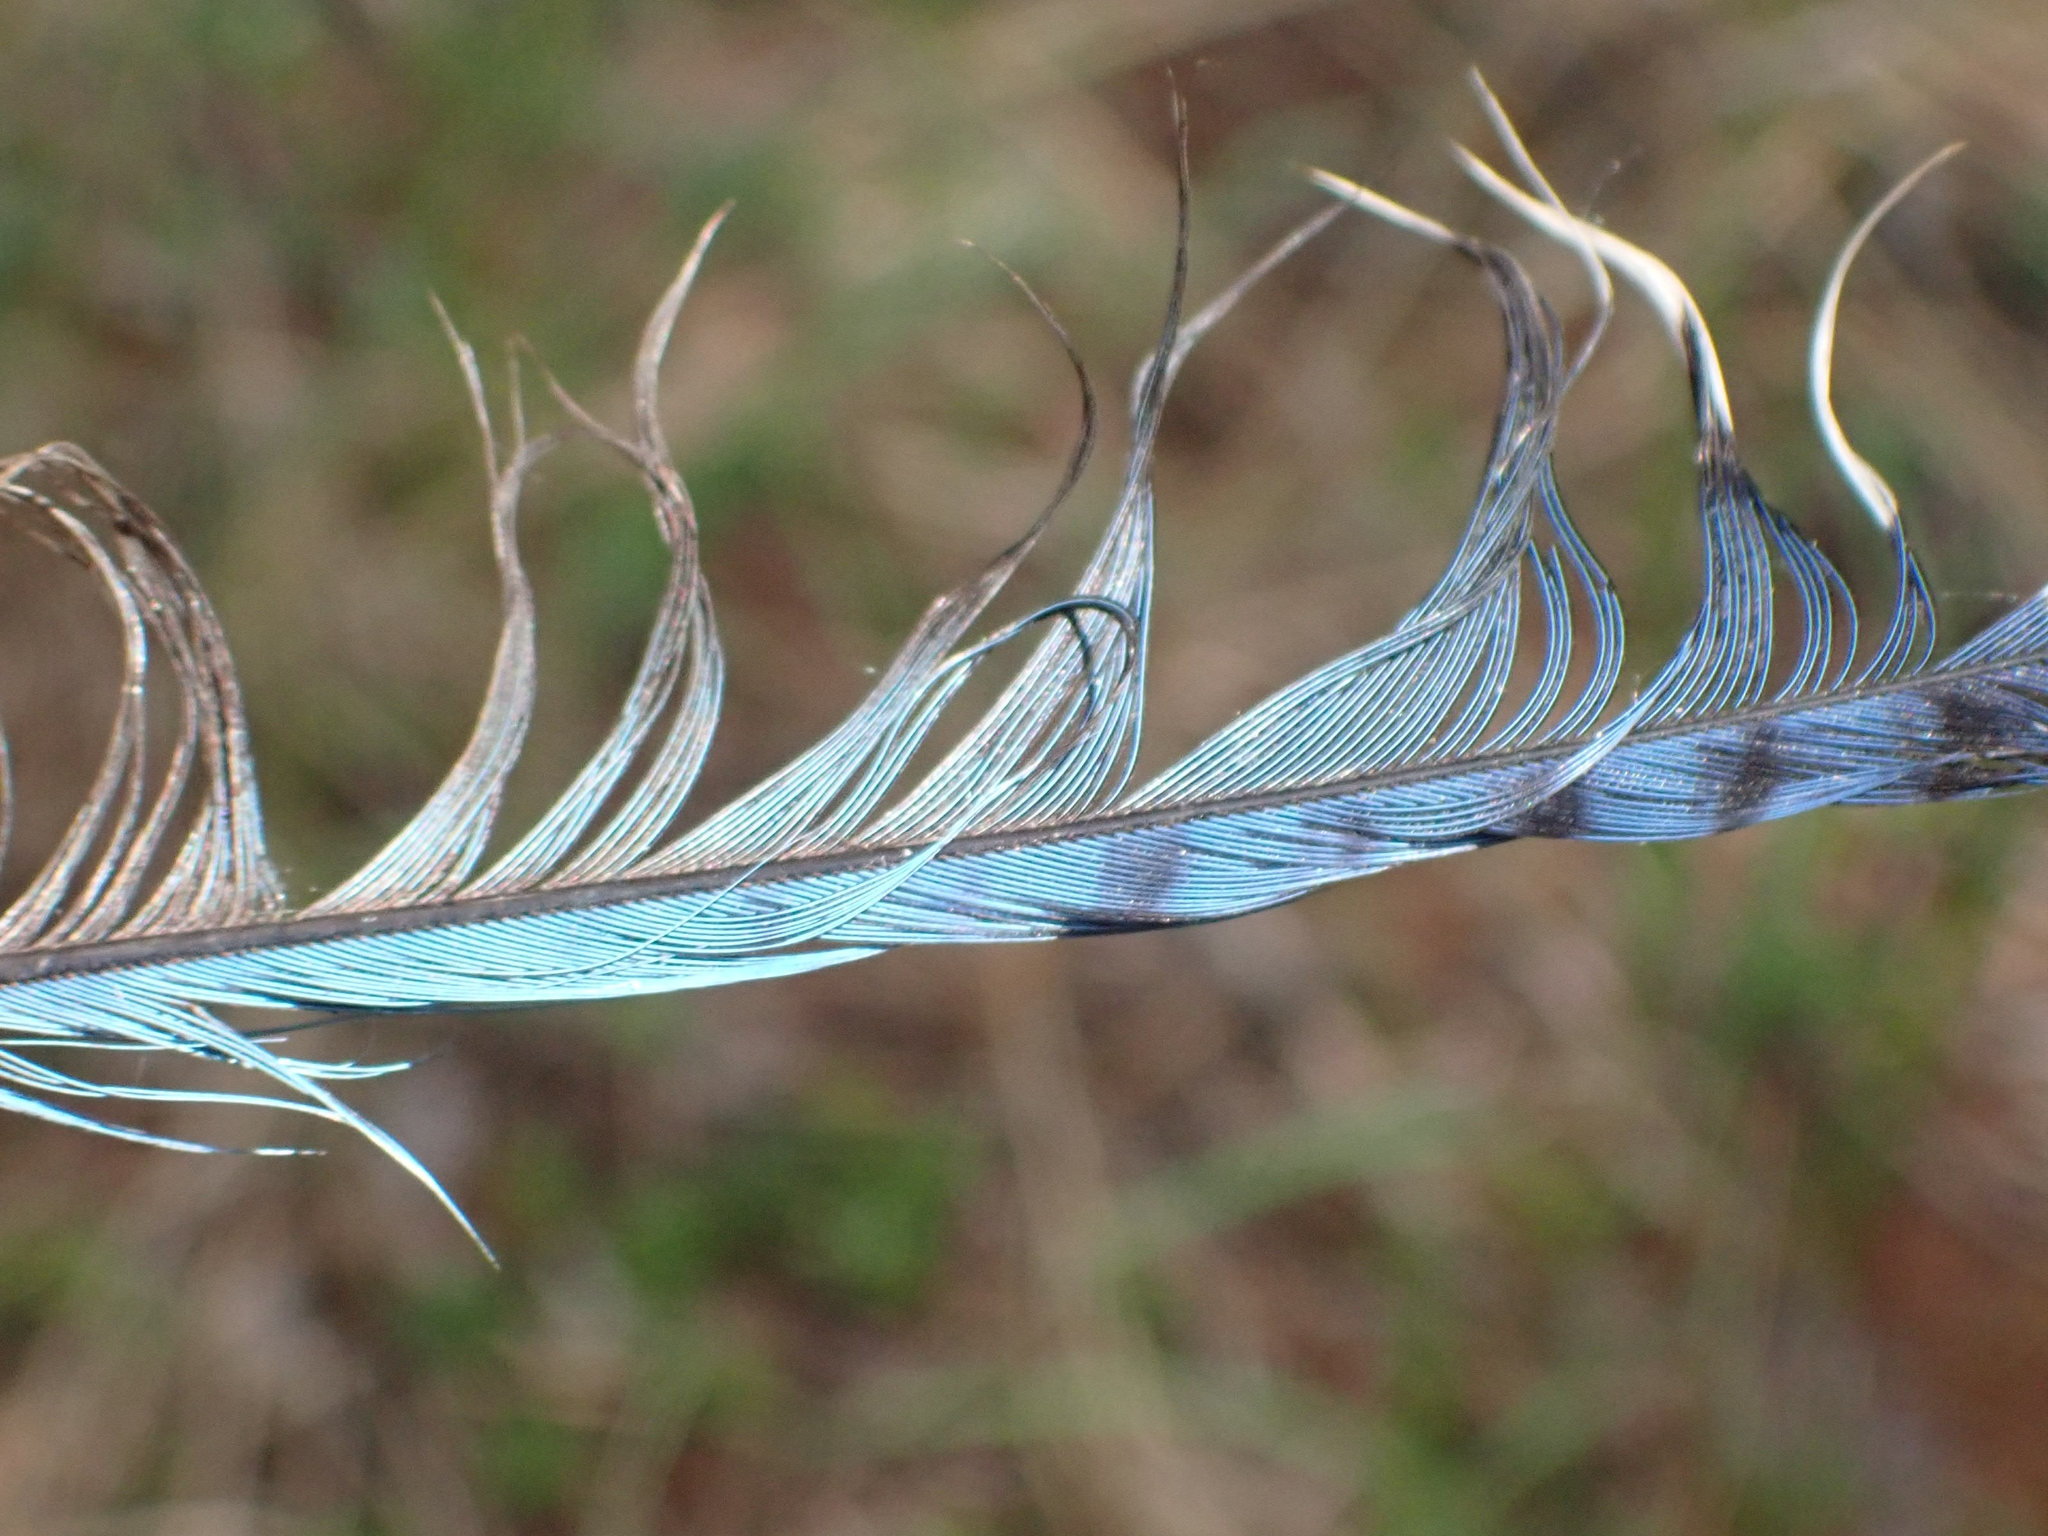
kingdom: Animalia
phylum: Chordata
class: Aves
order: Passeriformes
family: Corvidae
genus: Cyanocitta
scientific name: Cyanocitta cristata
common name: Blue jay
